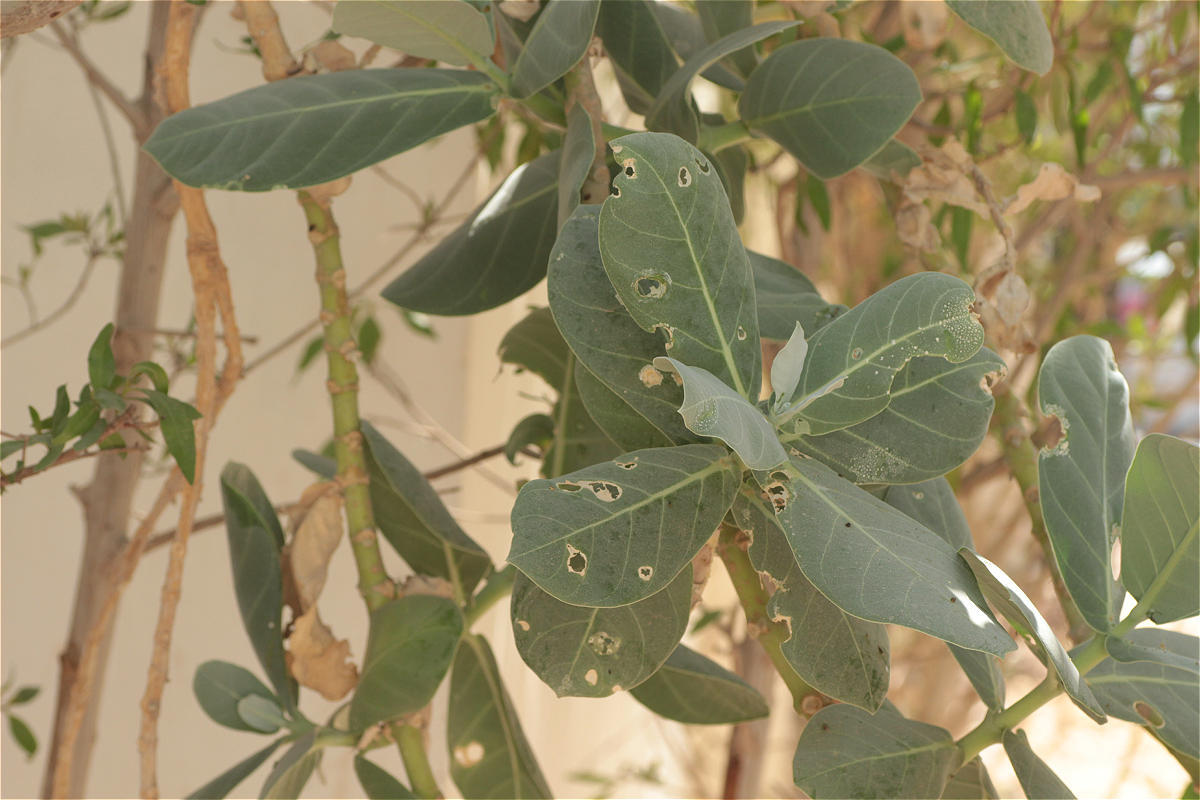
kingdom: Plantae
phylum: Tracheophyta
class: Magnoliopsida
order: Gentianales
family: Apocynaceae
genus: Calotropis
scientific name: Calotropis procera
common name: Roostertree
